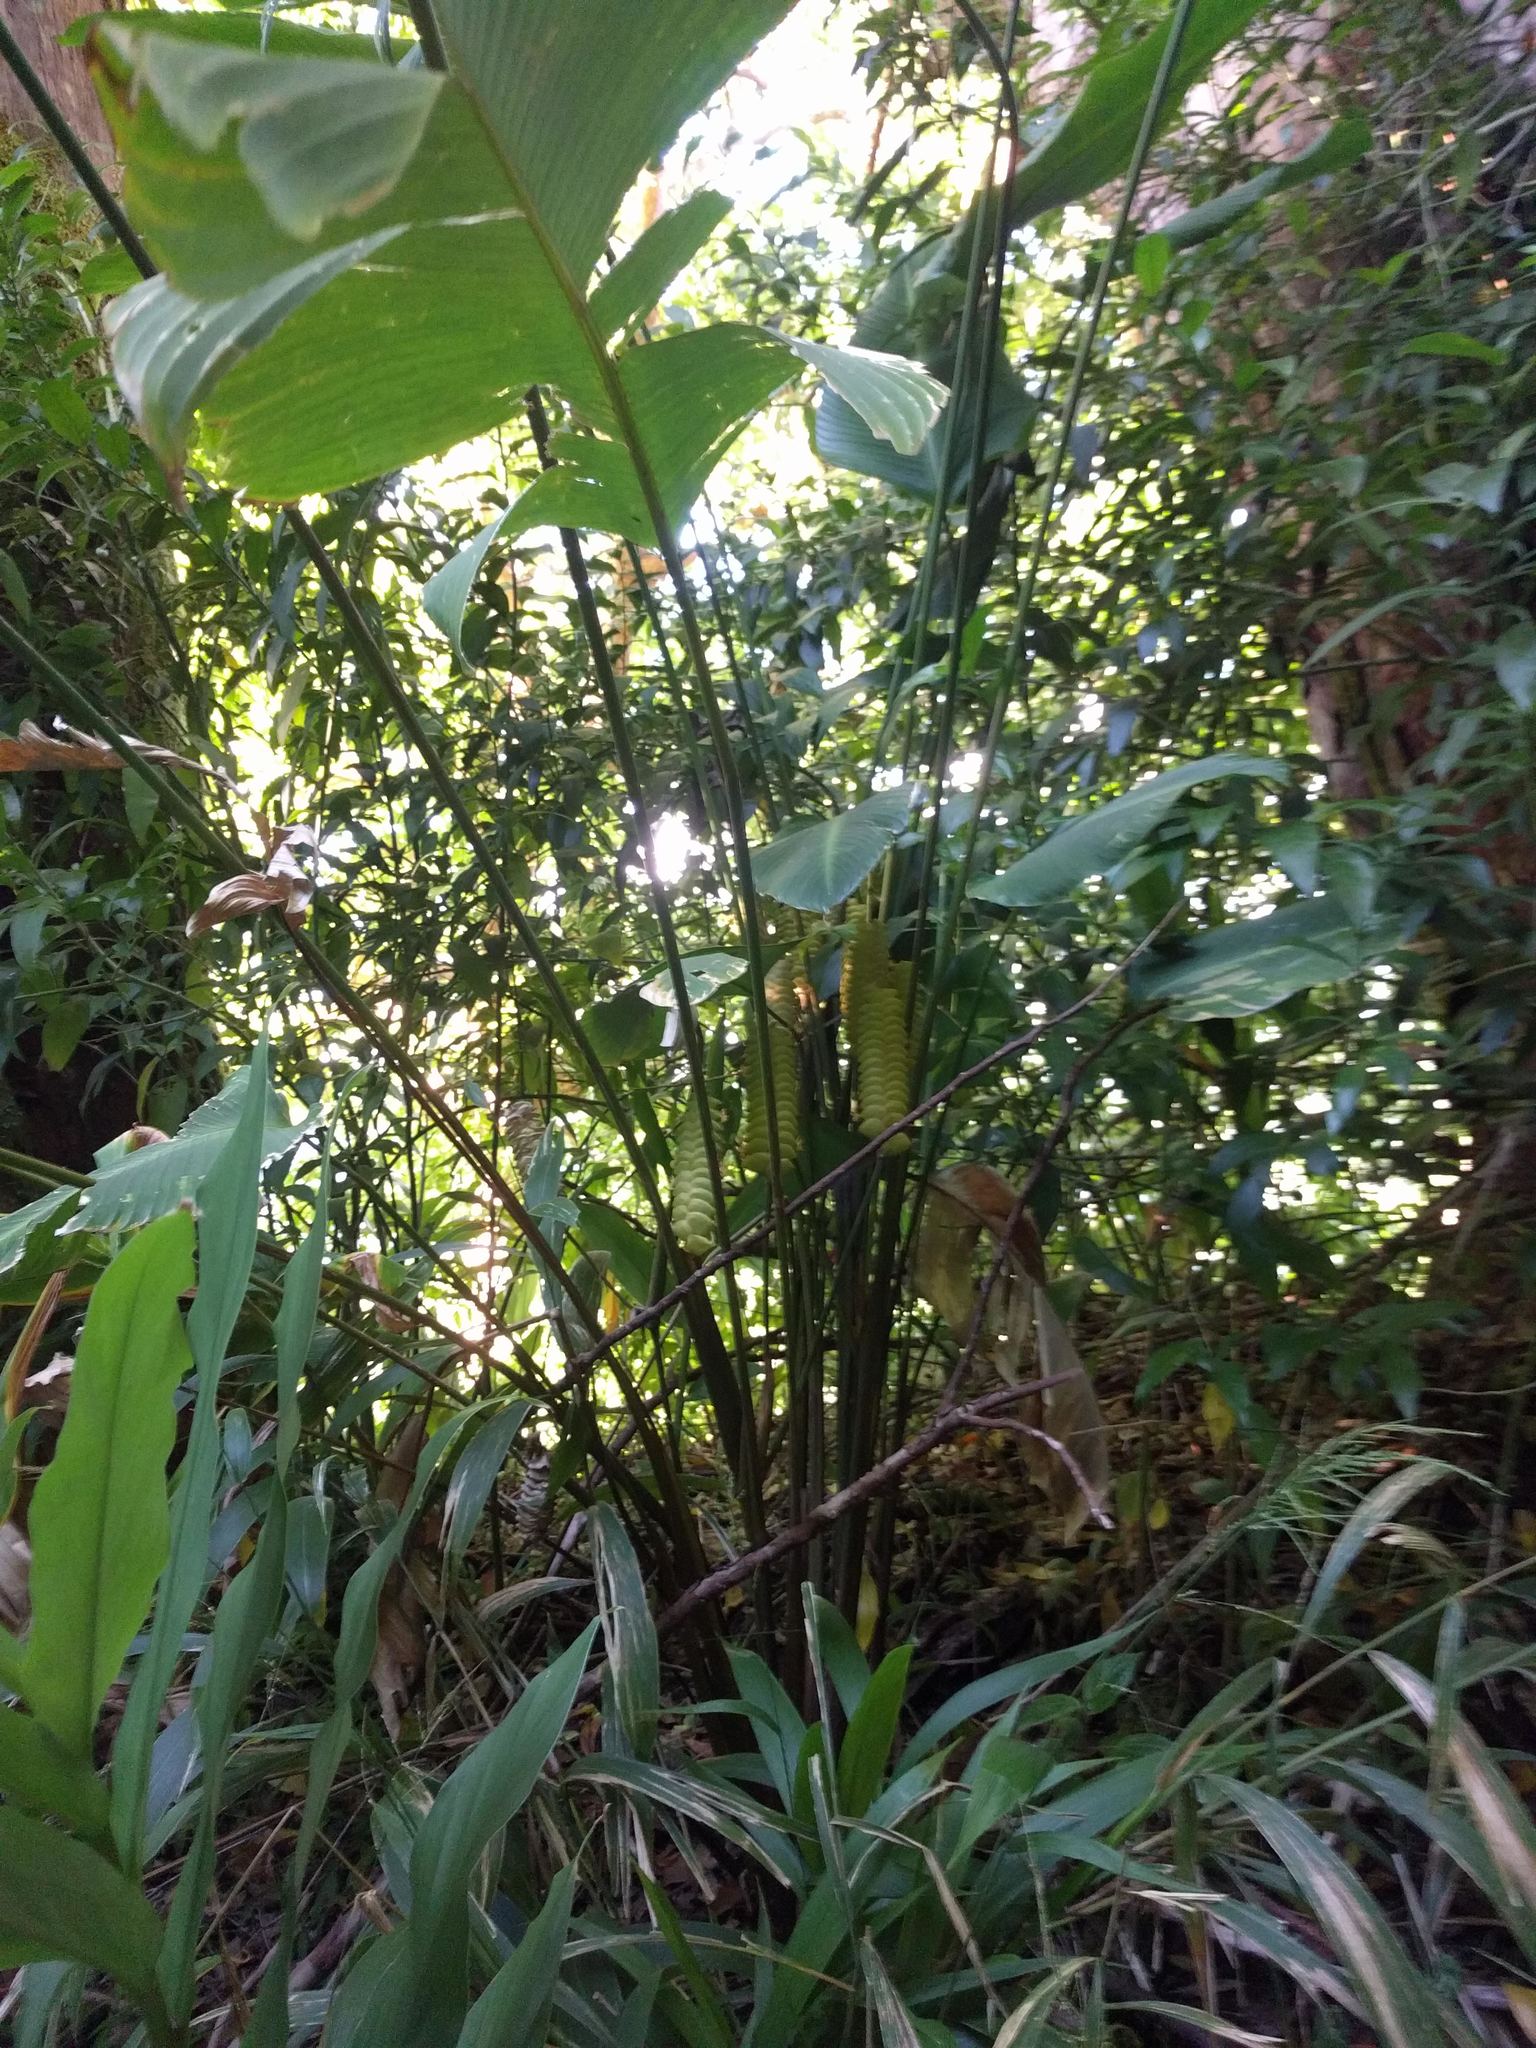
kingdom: Plantae
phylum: Tracheophyta
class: Liliopsida
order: Zingiberales
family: Marantaceae
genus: Calathea
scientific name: Calathea crotalifera
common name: Rattlesnake plant
